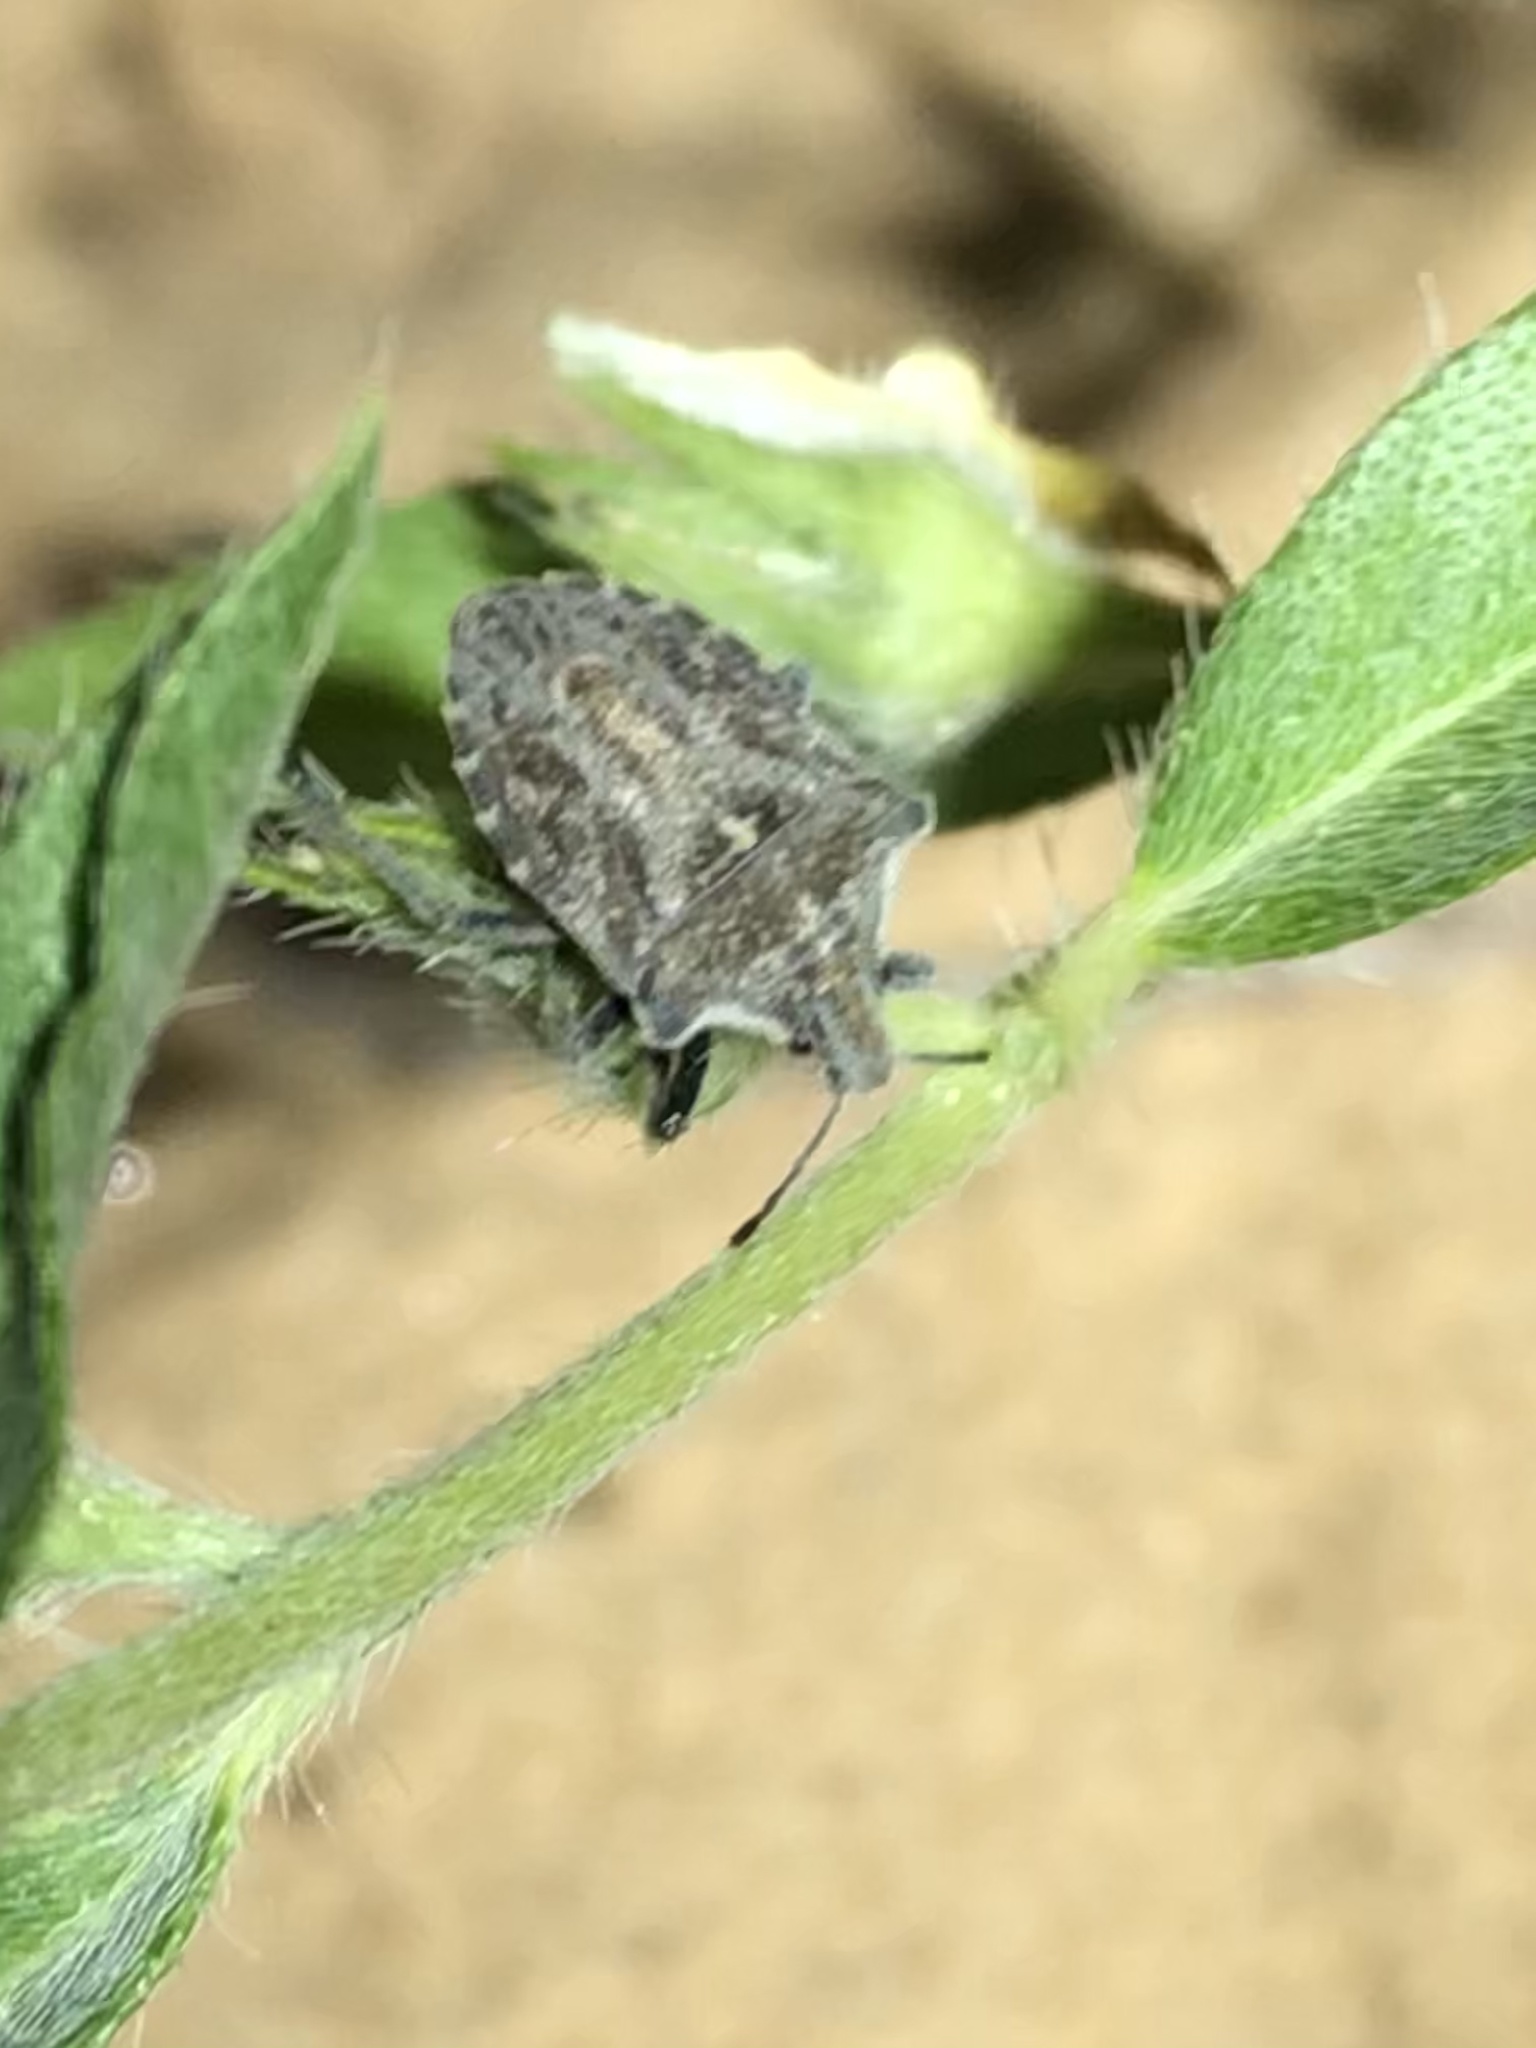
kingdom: Animalia
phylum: Arthropoda
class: Insecta
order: Hemiptera
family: Pentatomidae
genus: Prionosoma
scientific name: Prionosoma podopioides
